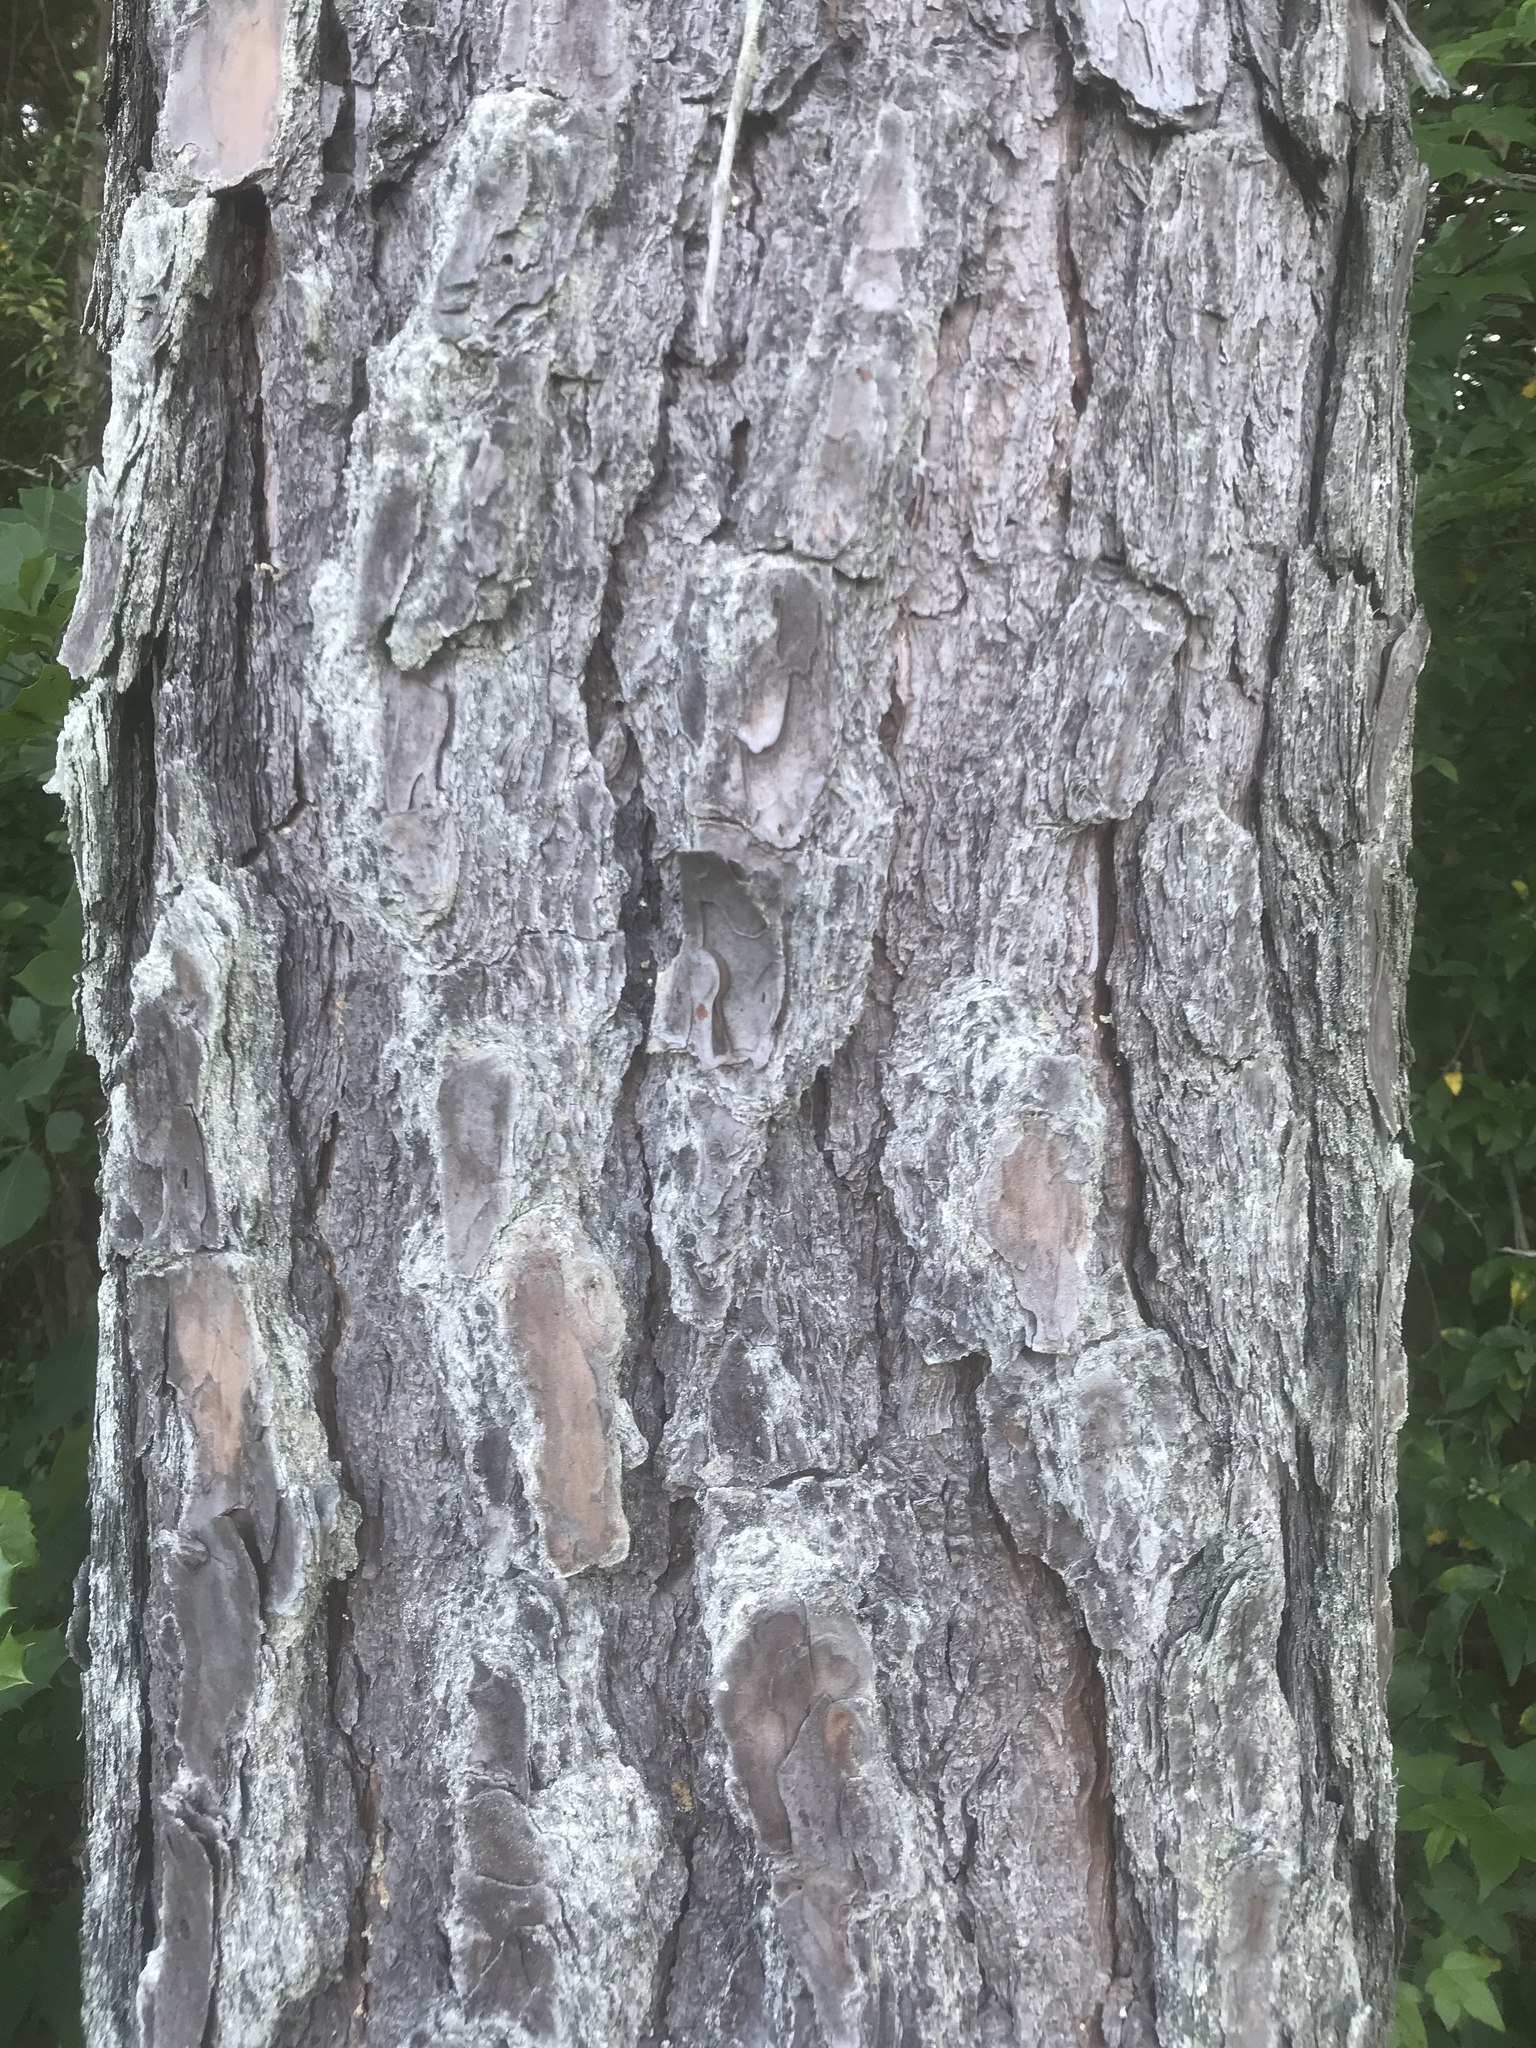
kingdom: Plantae
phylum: Tracheophyta
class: Pinopsida
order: Pinales
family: Pinaceae
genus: Pinus
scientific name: Pinus taeda
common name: Loblolly pine
